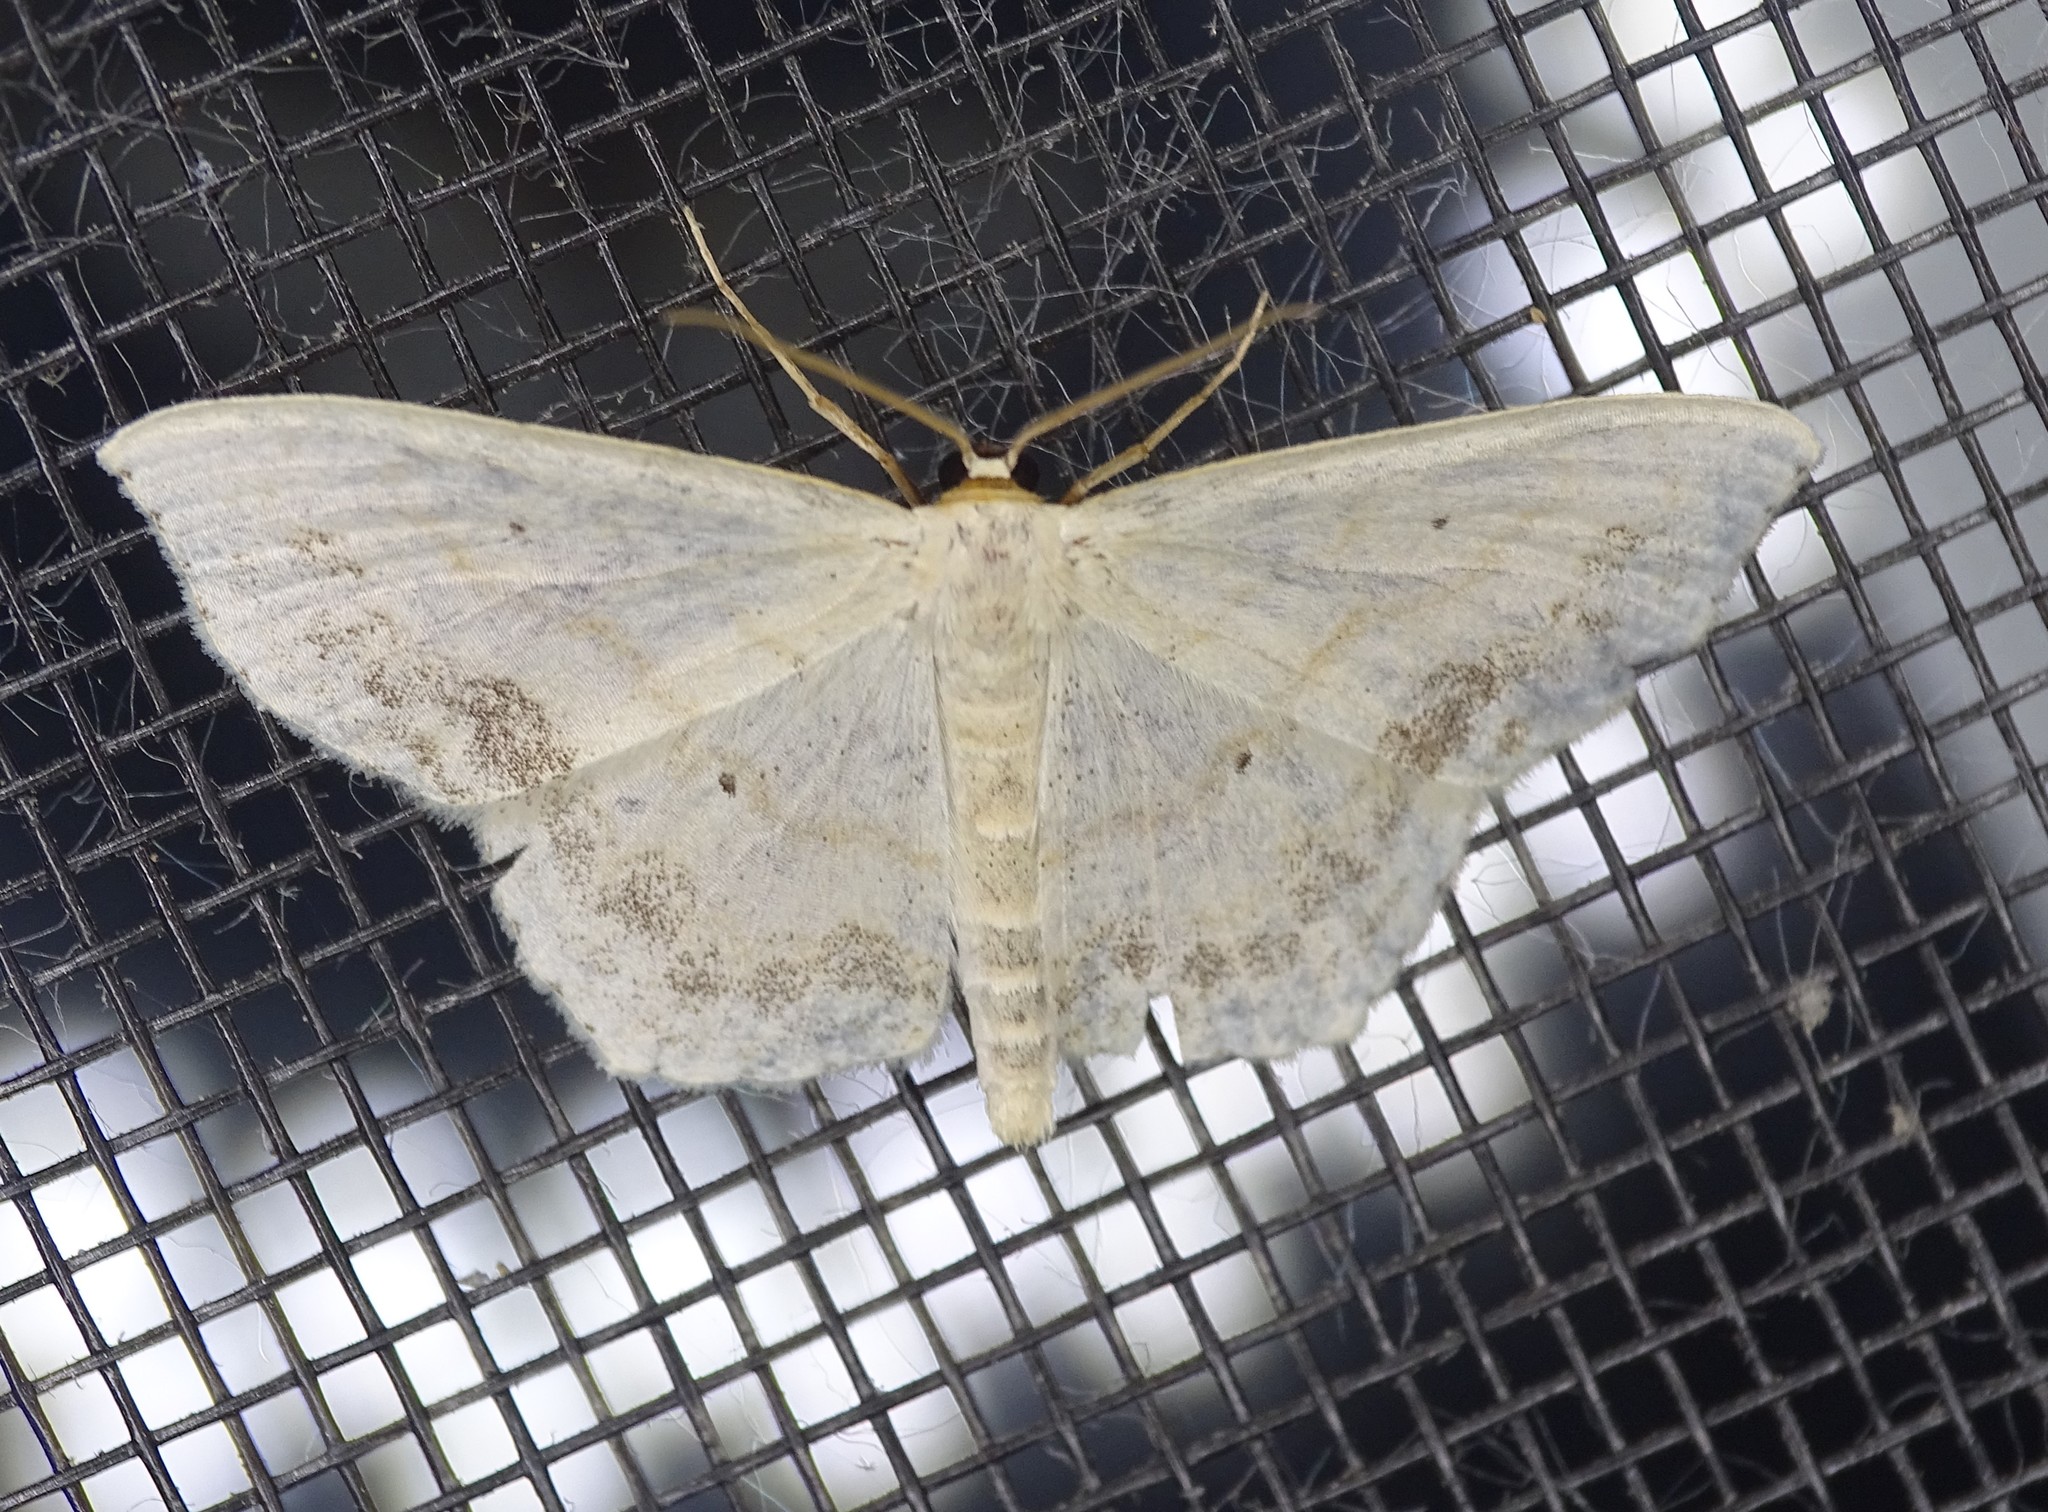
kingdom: Animalia
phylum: Arthropoda
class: Insecta
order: Lepidoptera
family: Geometridae
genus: Scopula
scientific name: Scopula limboundata
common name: Large lace border
